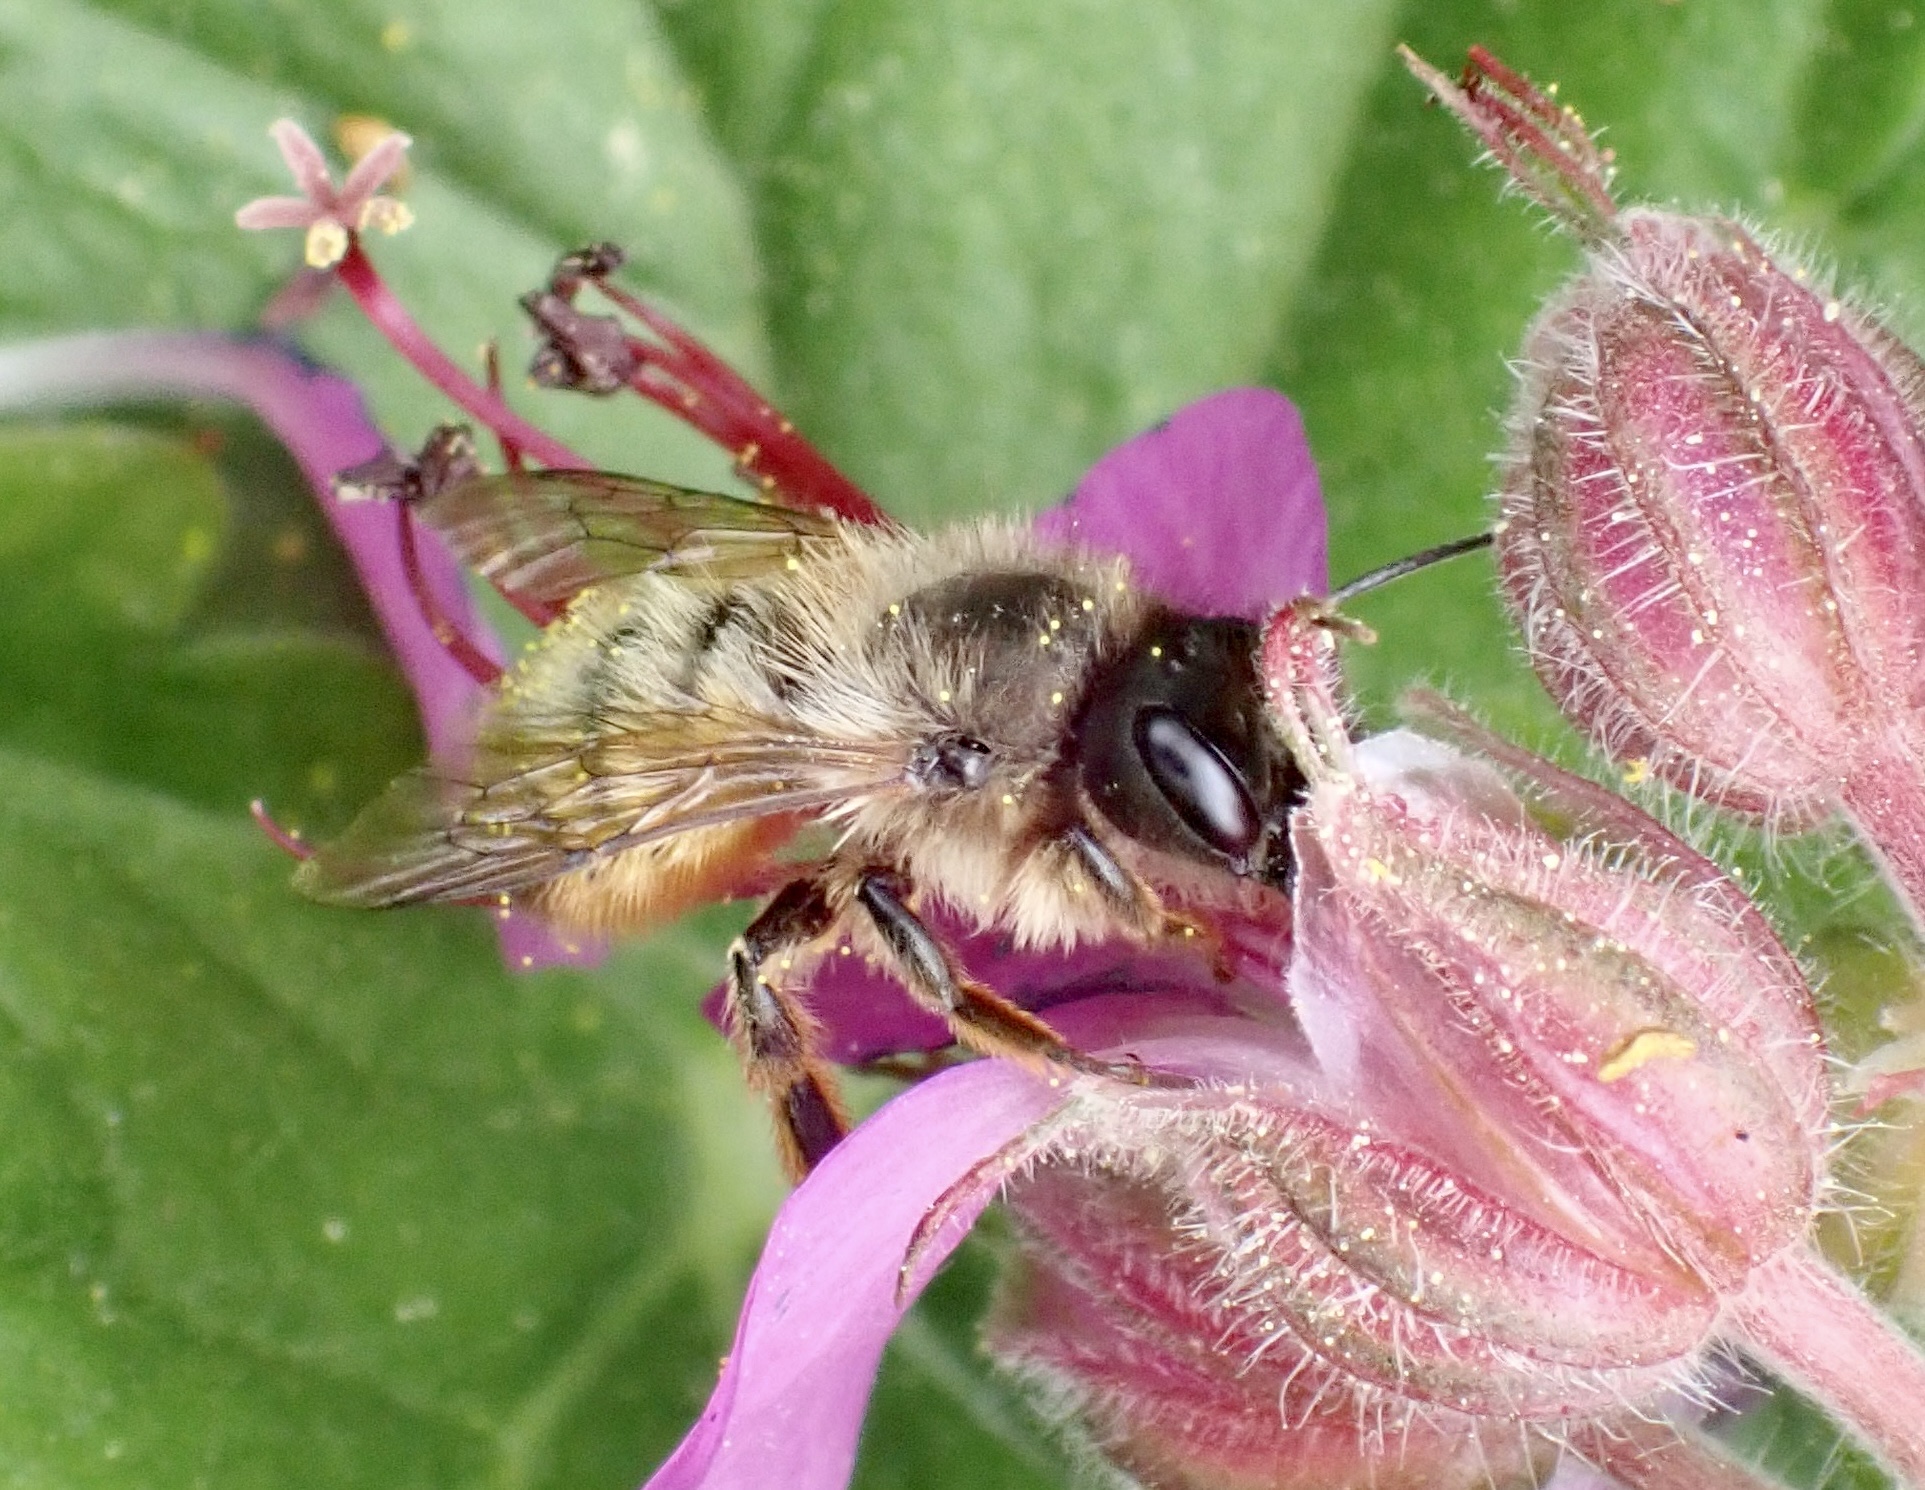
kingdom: Animalia
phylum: Arthropoda
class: Insecta
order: Hymenoptera
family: Megachilidae
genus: Osmia
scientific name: Osmia bicornis
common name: Red mason bee
